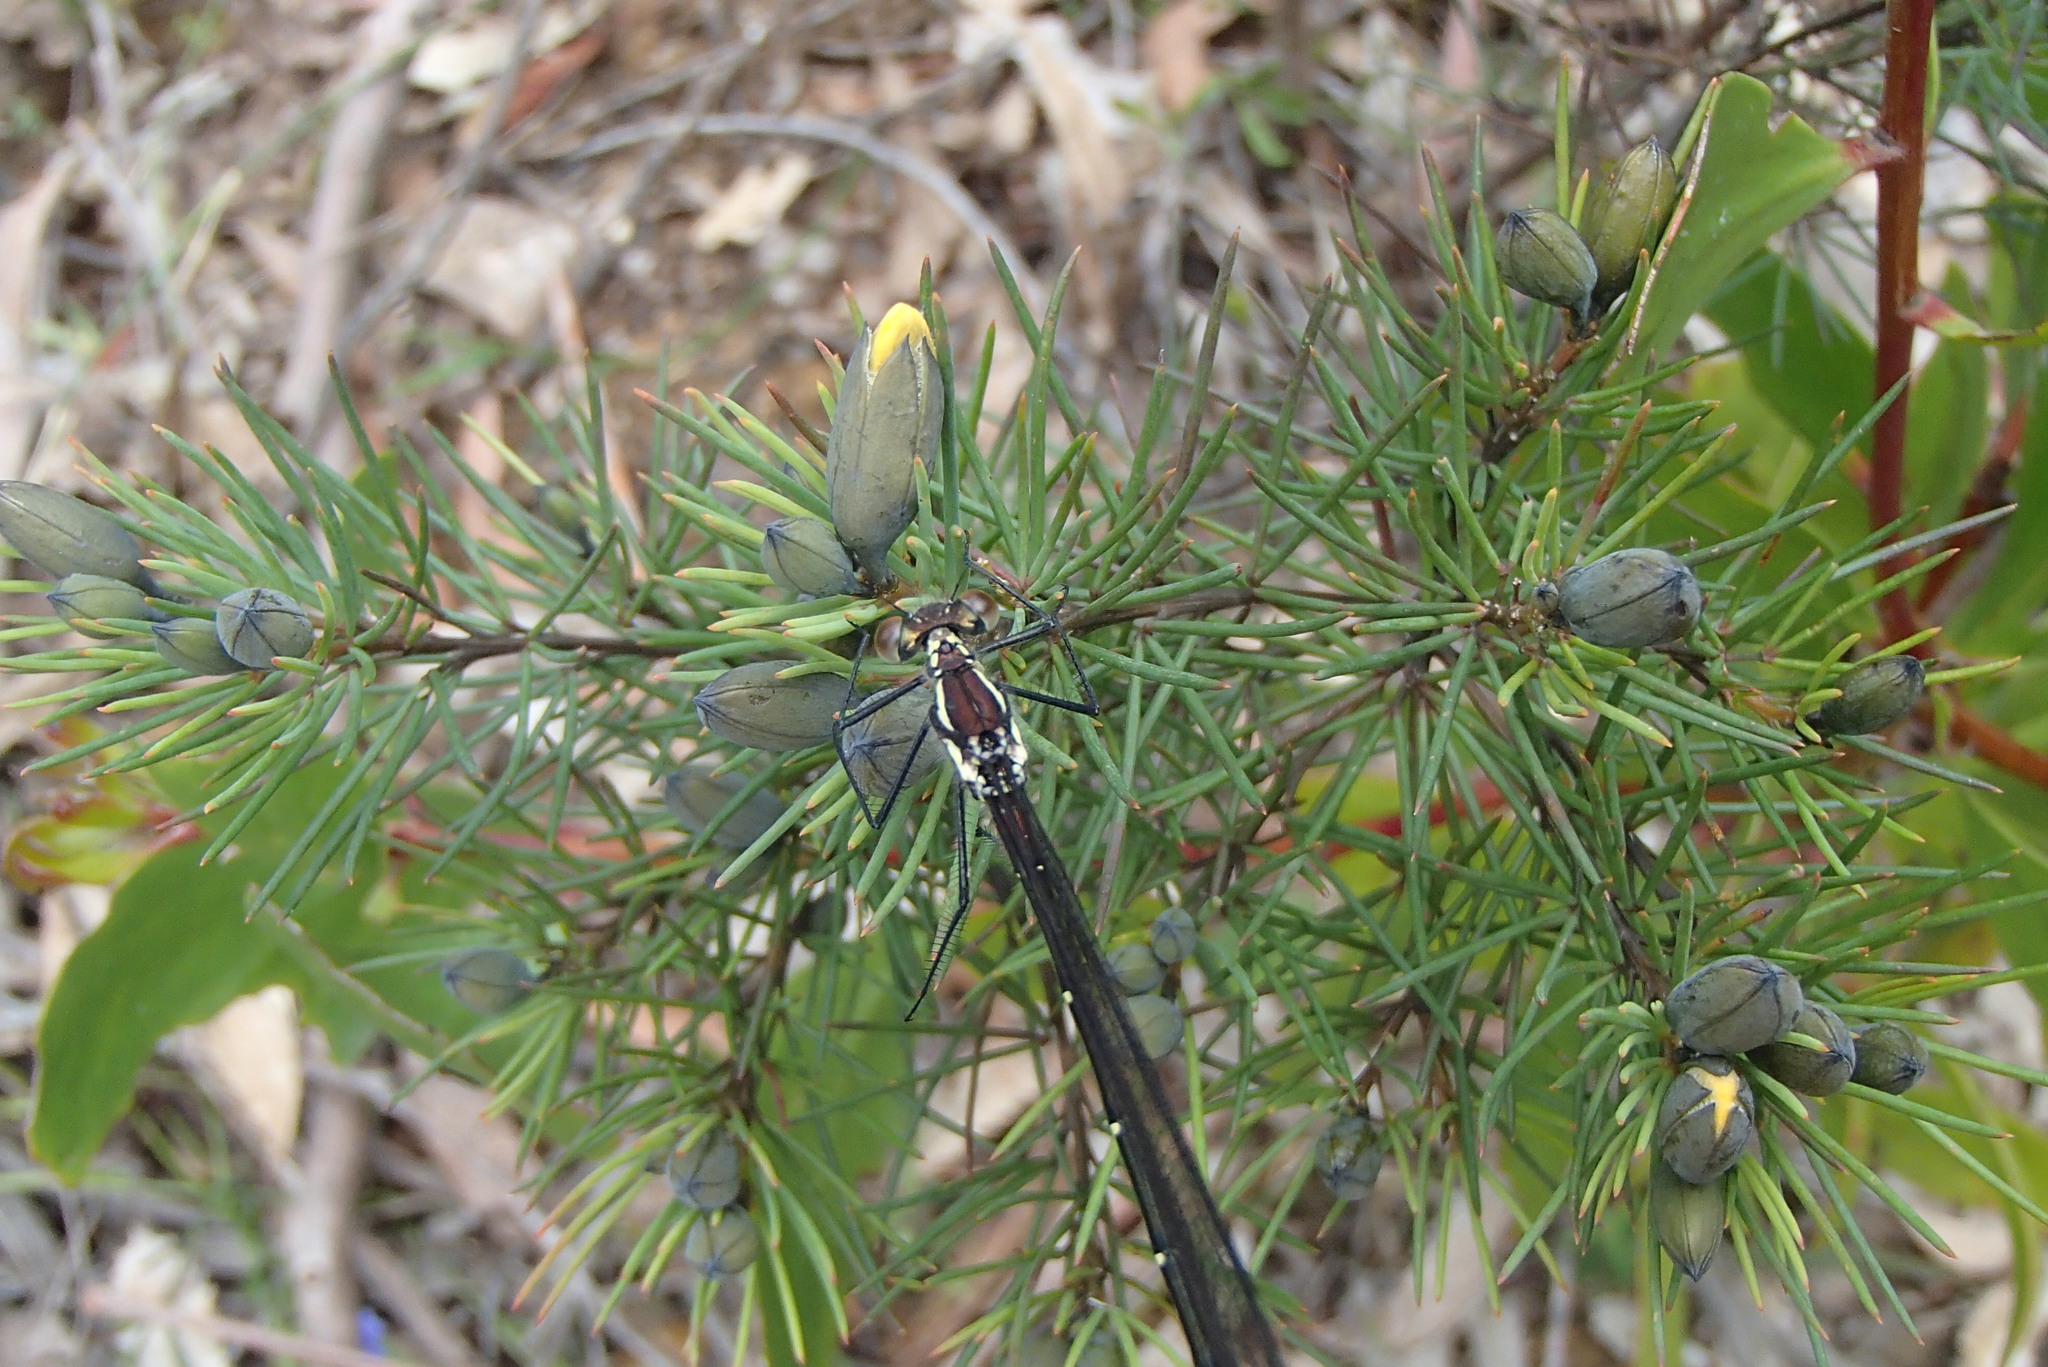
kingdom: Animalia
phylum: Arthropoda
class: Insecta
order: Odonata
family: Argiolestidae
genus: Austroargiolestes
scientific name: Austroargiolestes isabellae
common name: Sydney flatwing
